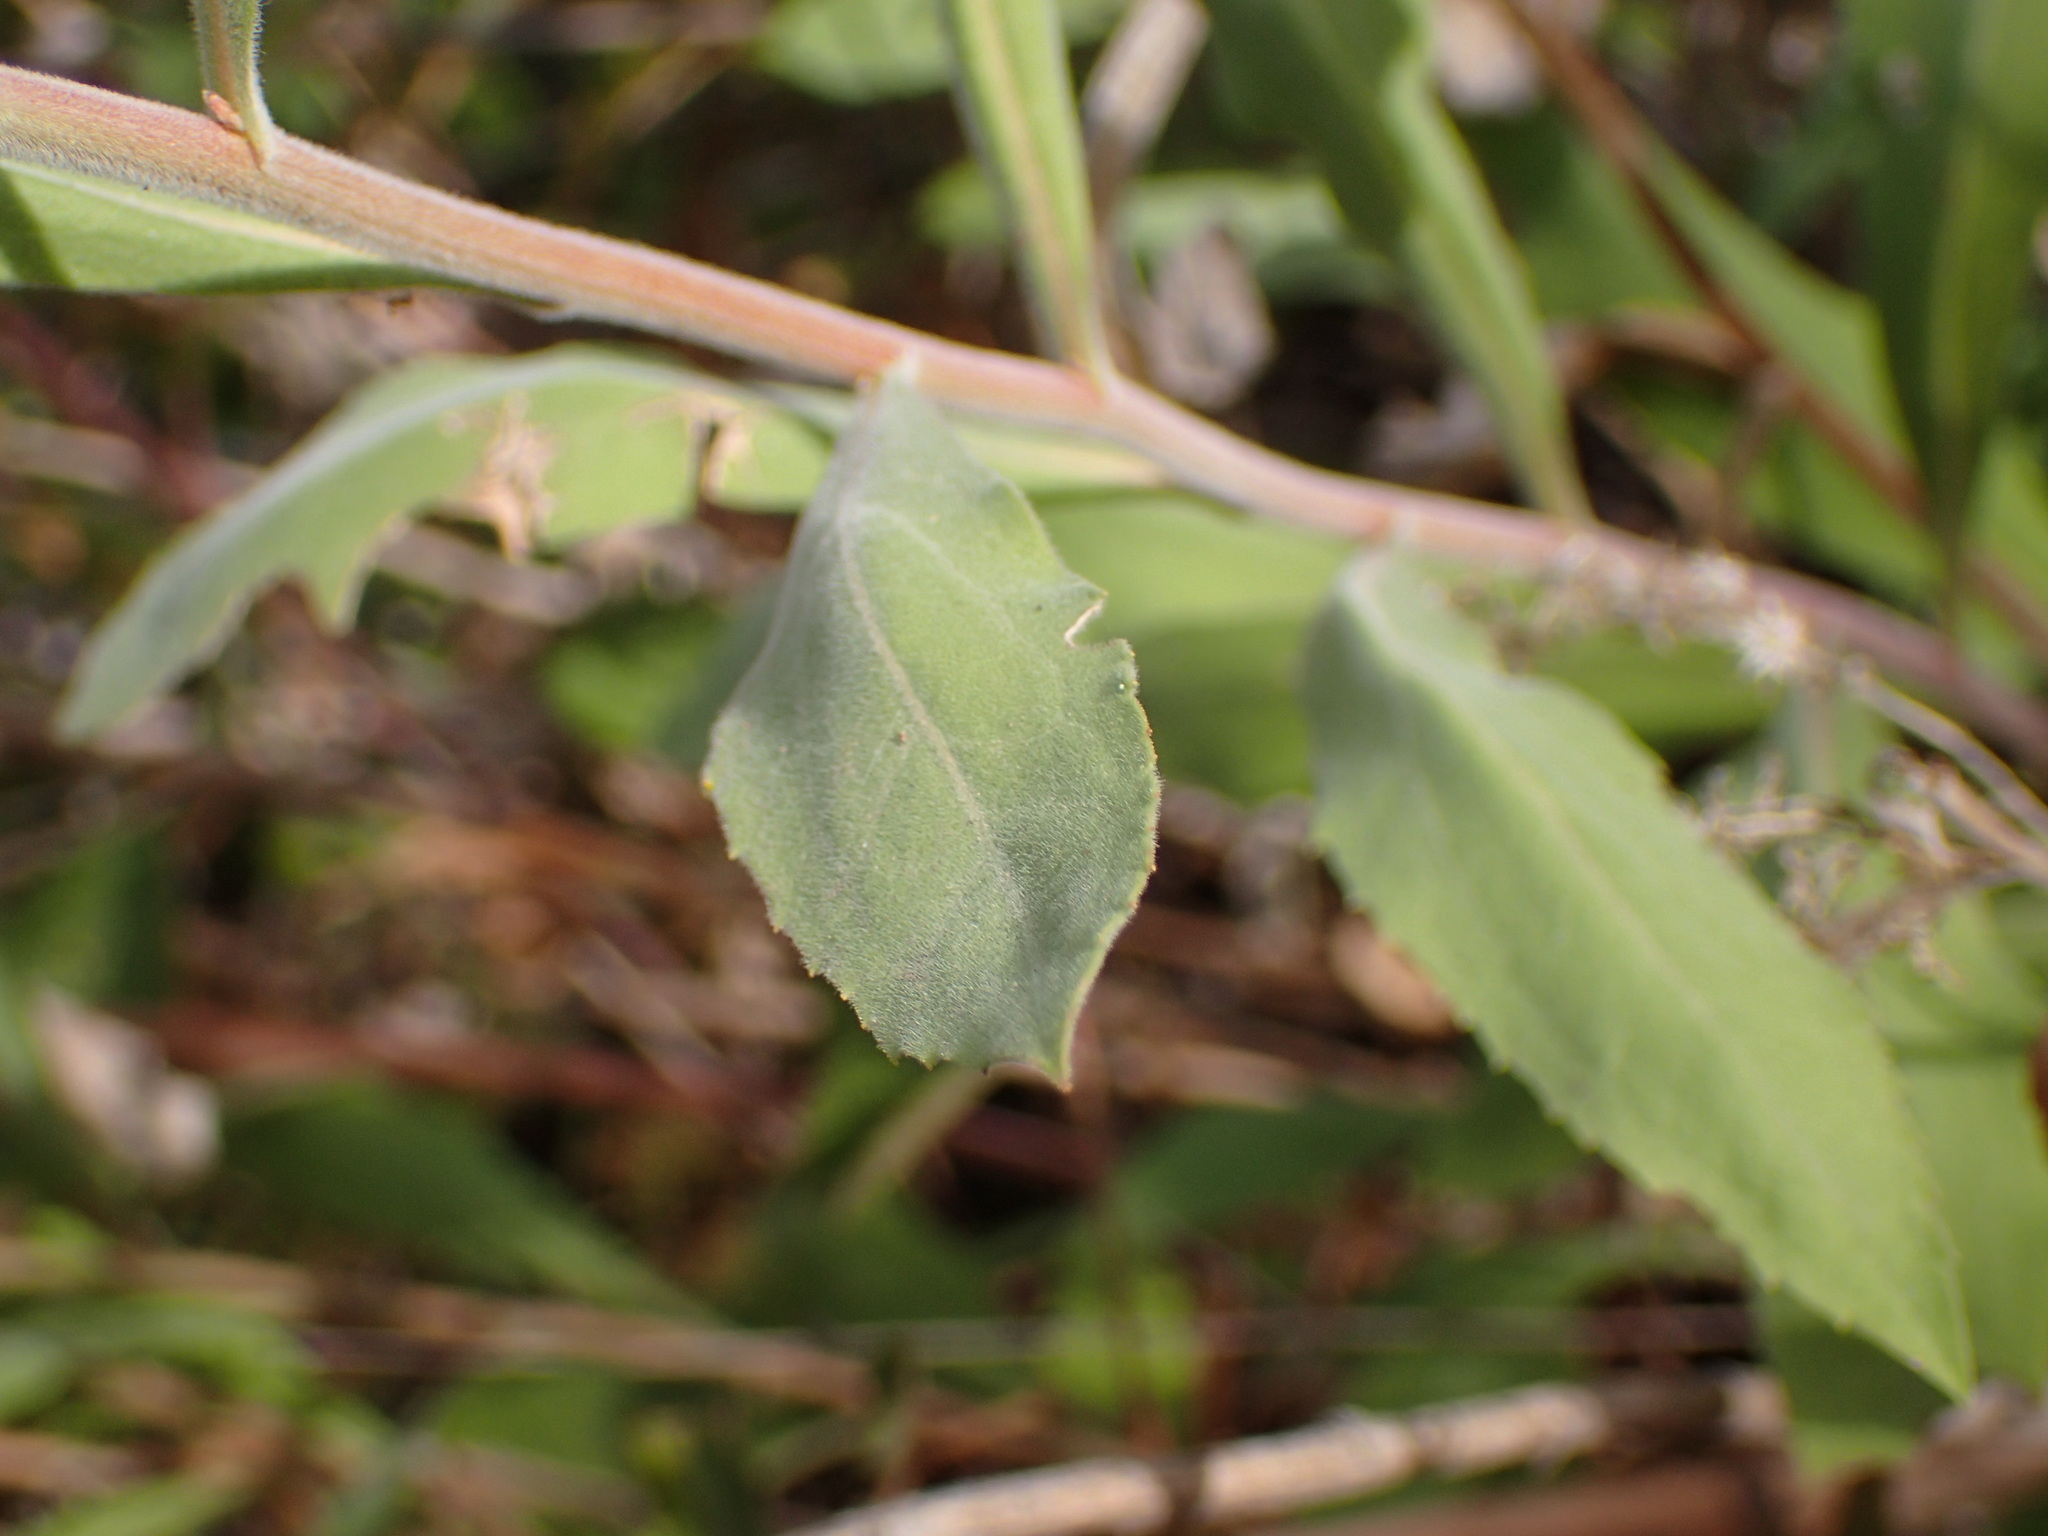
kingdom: Plantae
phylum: Tracheophyta
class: Magnoliopsida
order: Asterales
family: Asteraceae
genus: Solidago
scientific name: Solidago velutina
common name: Three-nerve goldenrod
